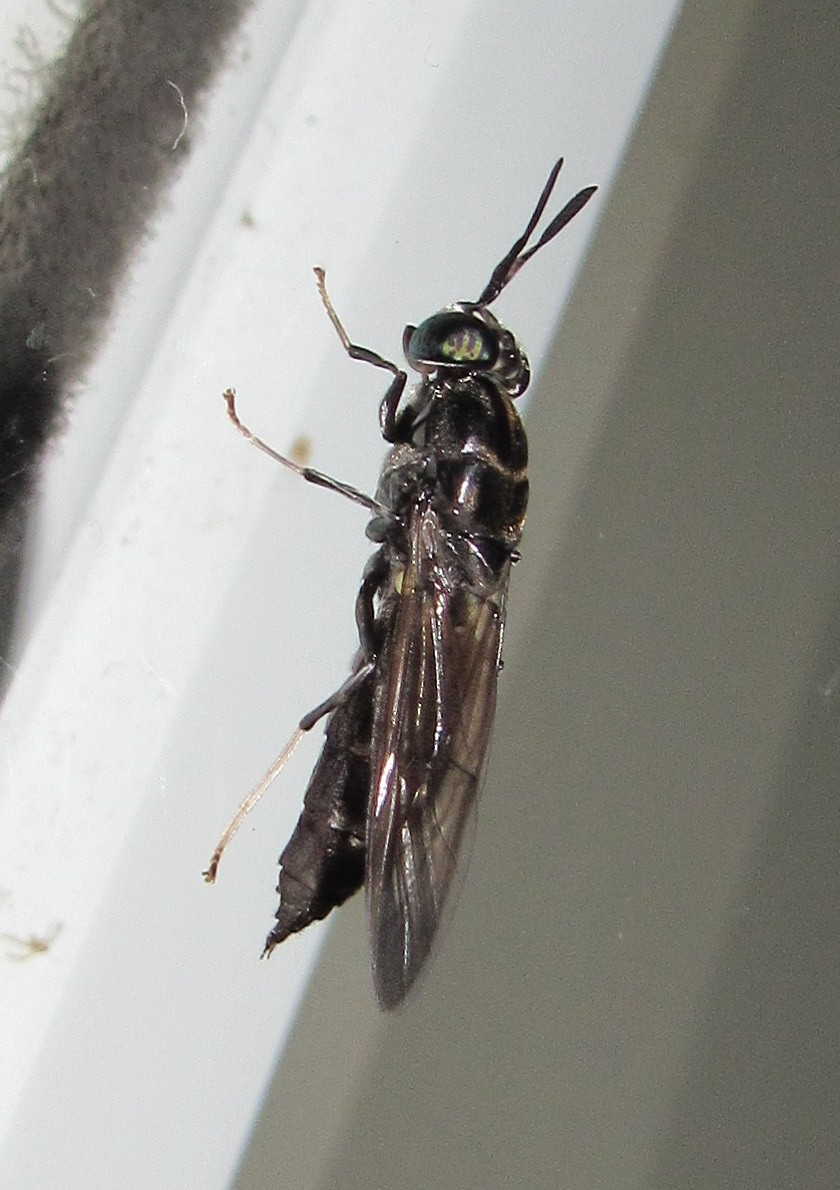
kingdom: Animalia
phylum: Arthropoda
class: Insecta
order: Diptera
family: Stratiomyidae
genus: Hermetia
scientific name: Hermetia illucens
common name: Black soldier fly
